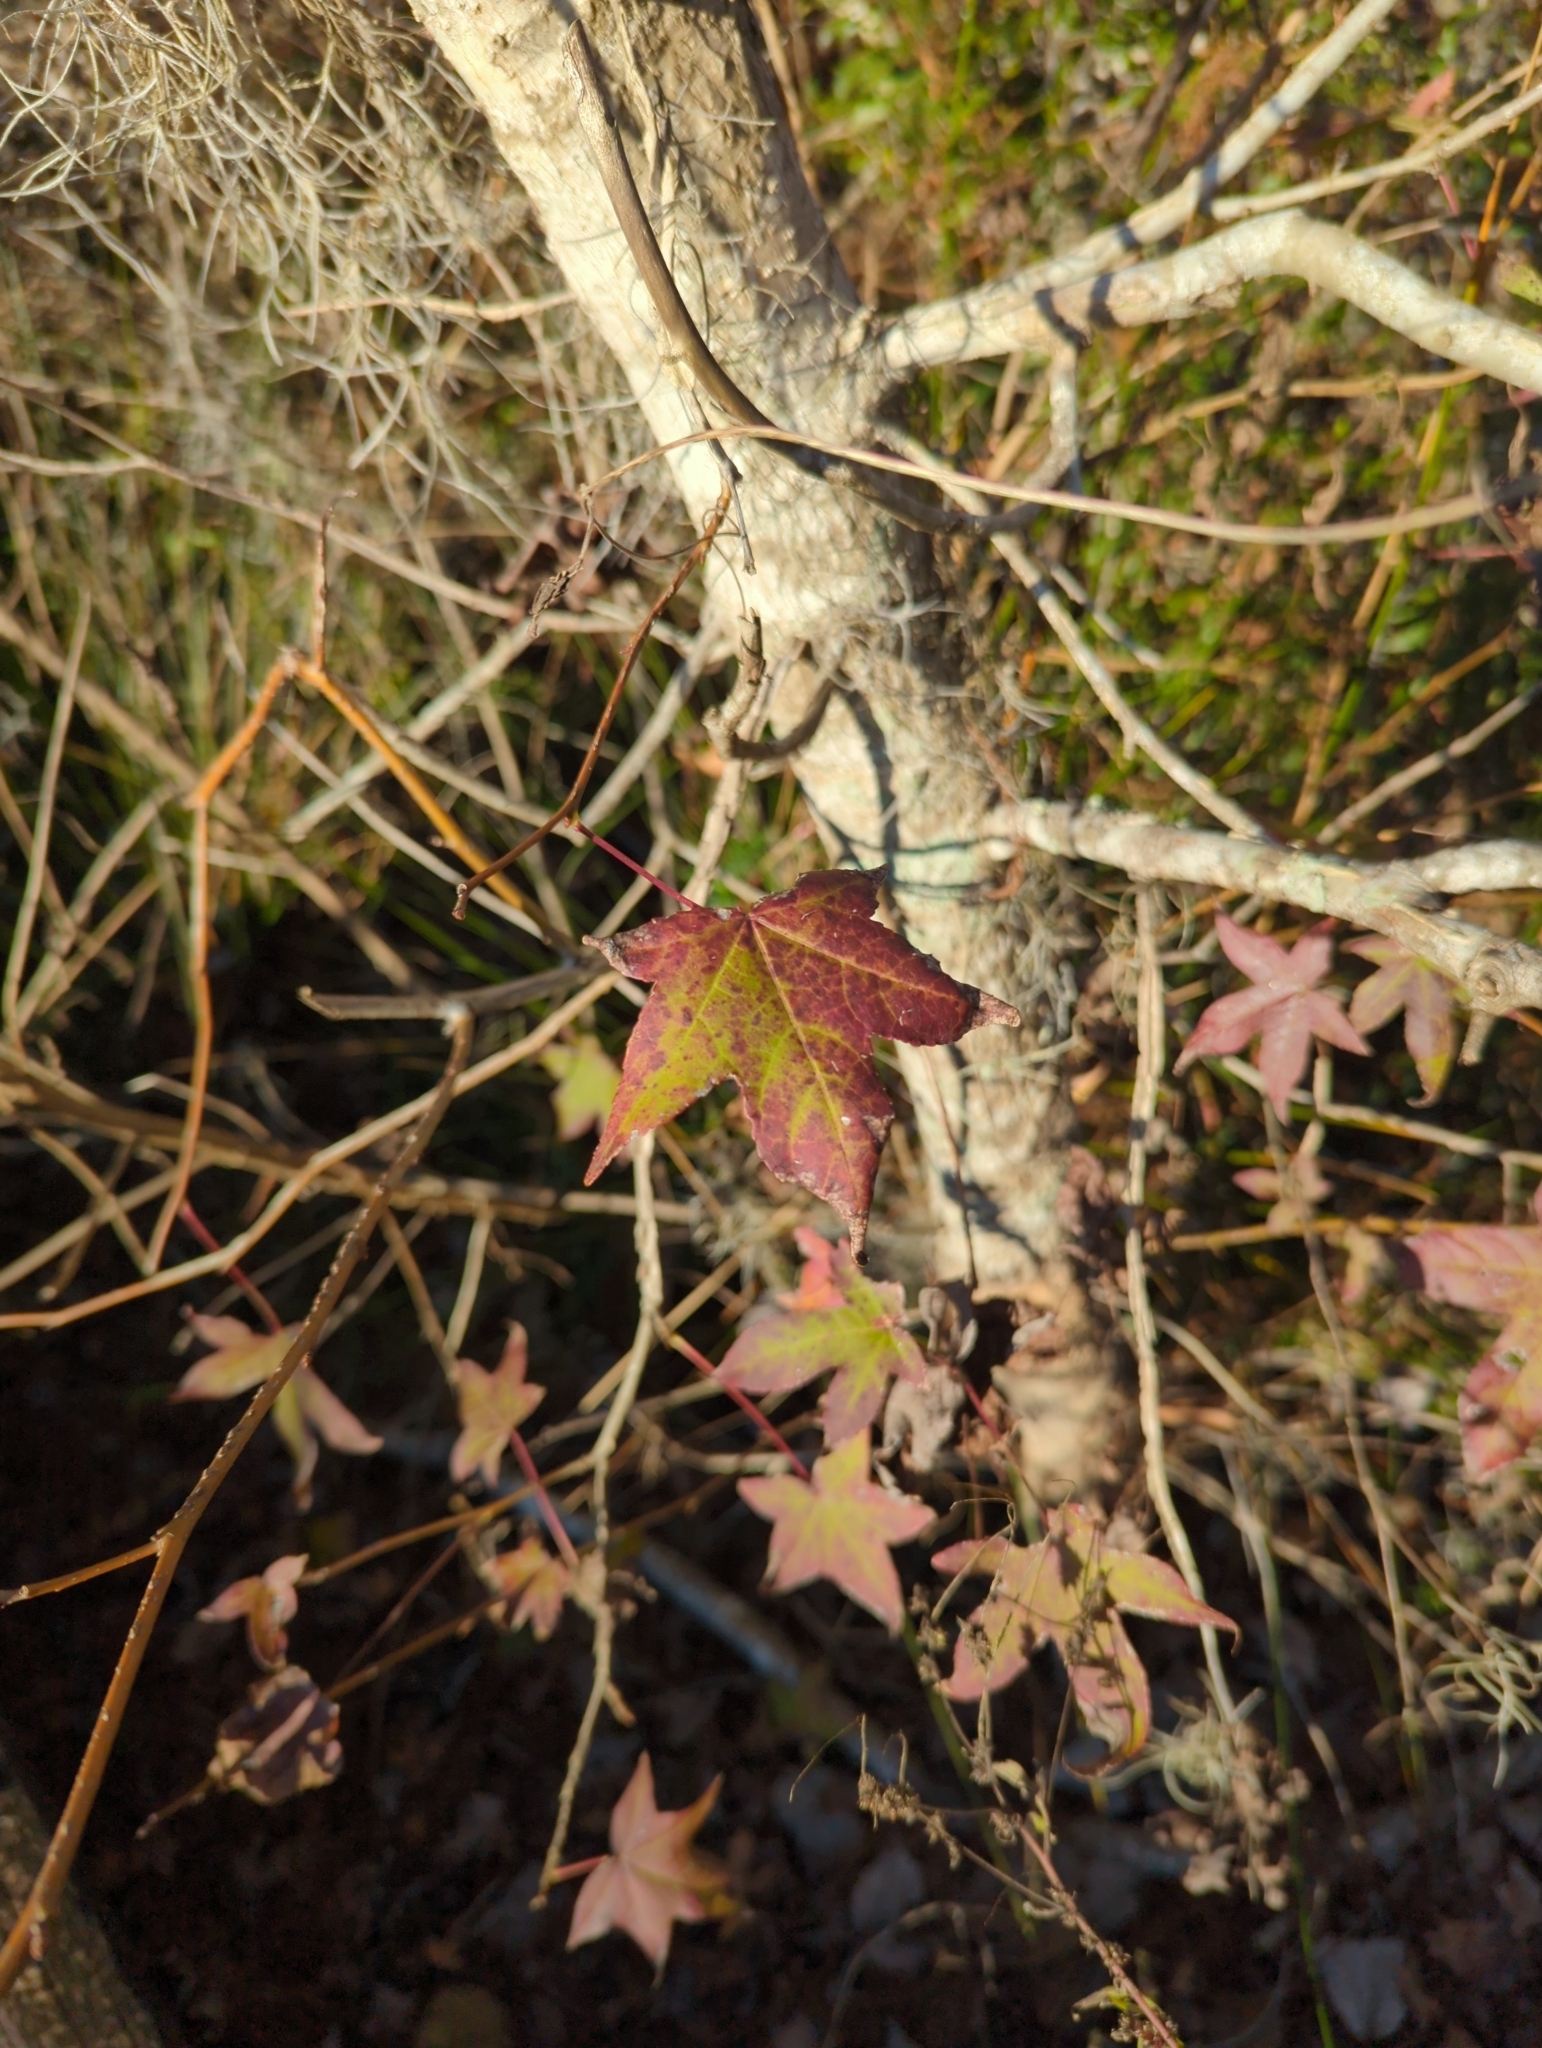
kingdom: Plantae
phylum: Tracheophyta
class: Magnoliopsida
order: Saxifragales
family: Altingiaceae
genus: Liquidambar
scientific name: Liquidambar styraciflua
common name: Sweet gum
